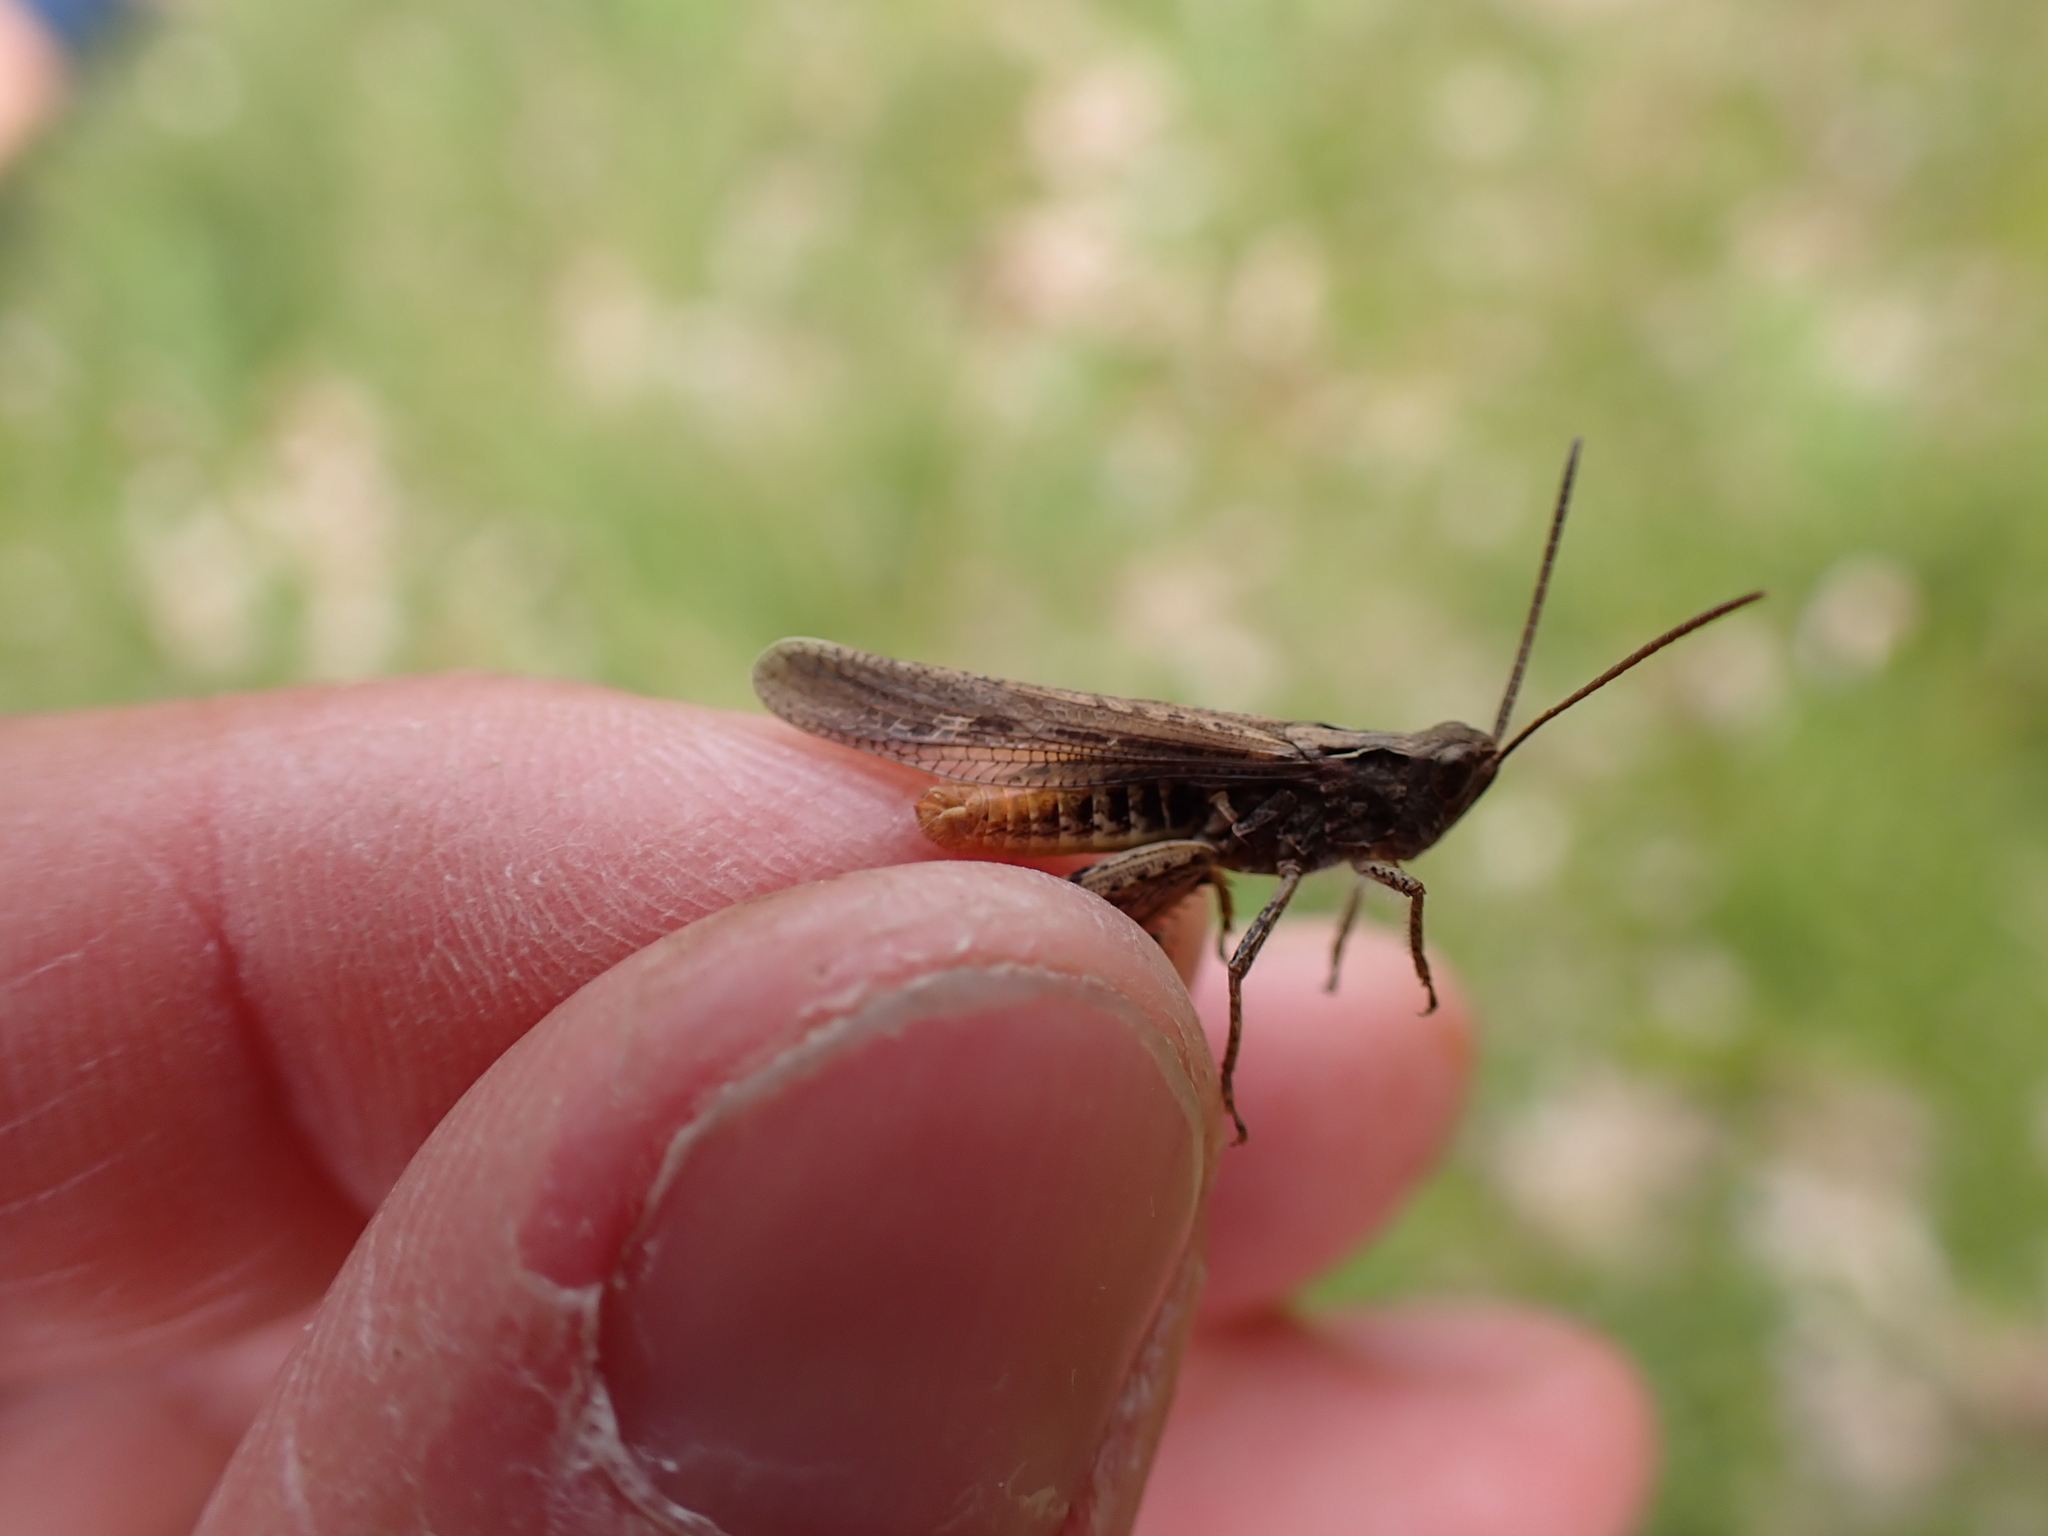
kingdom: Animalia
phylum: Arthropoda
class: Insecta
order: Orthoptera
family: Acrididae
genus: Chorthippus
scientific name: Chorthippus brunneus
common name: Field grasshopper
